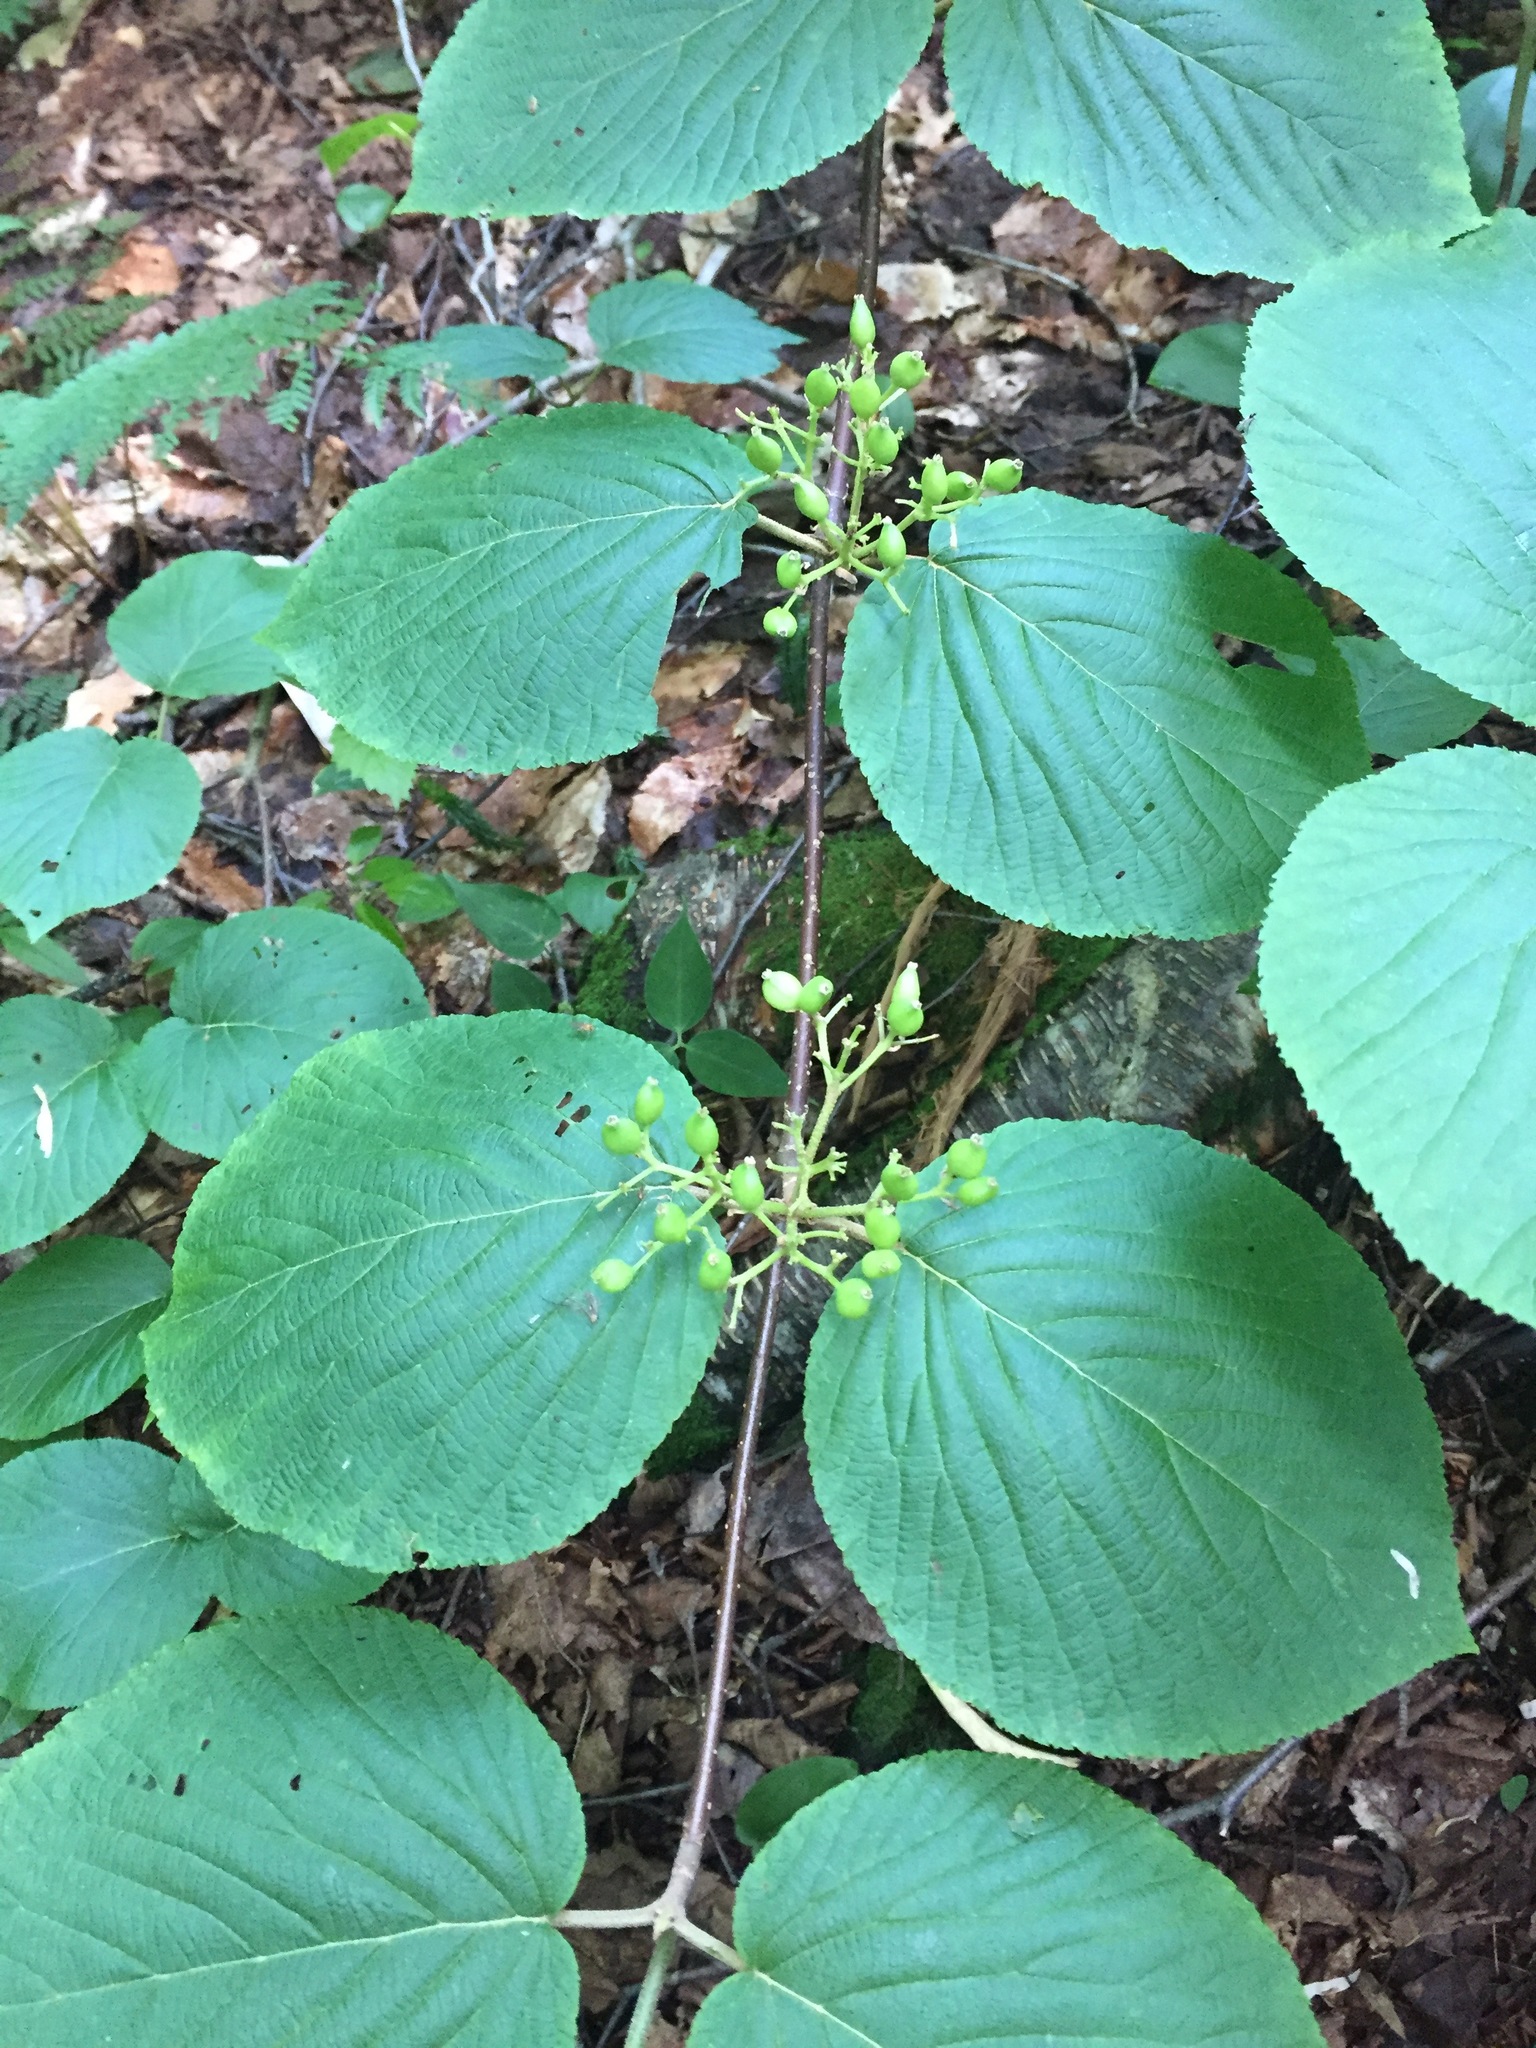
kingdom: Plantae
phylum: Tracheophyta
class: Magnoliopsida
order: Dipsacales
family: Viburnaceae
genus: Viburnum
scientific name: Viburnum lantanoides
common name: Hobblebush
